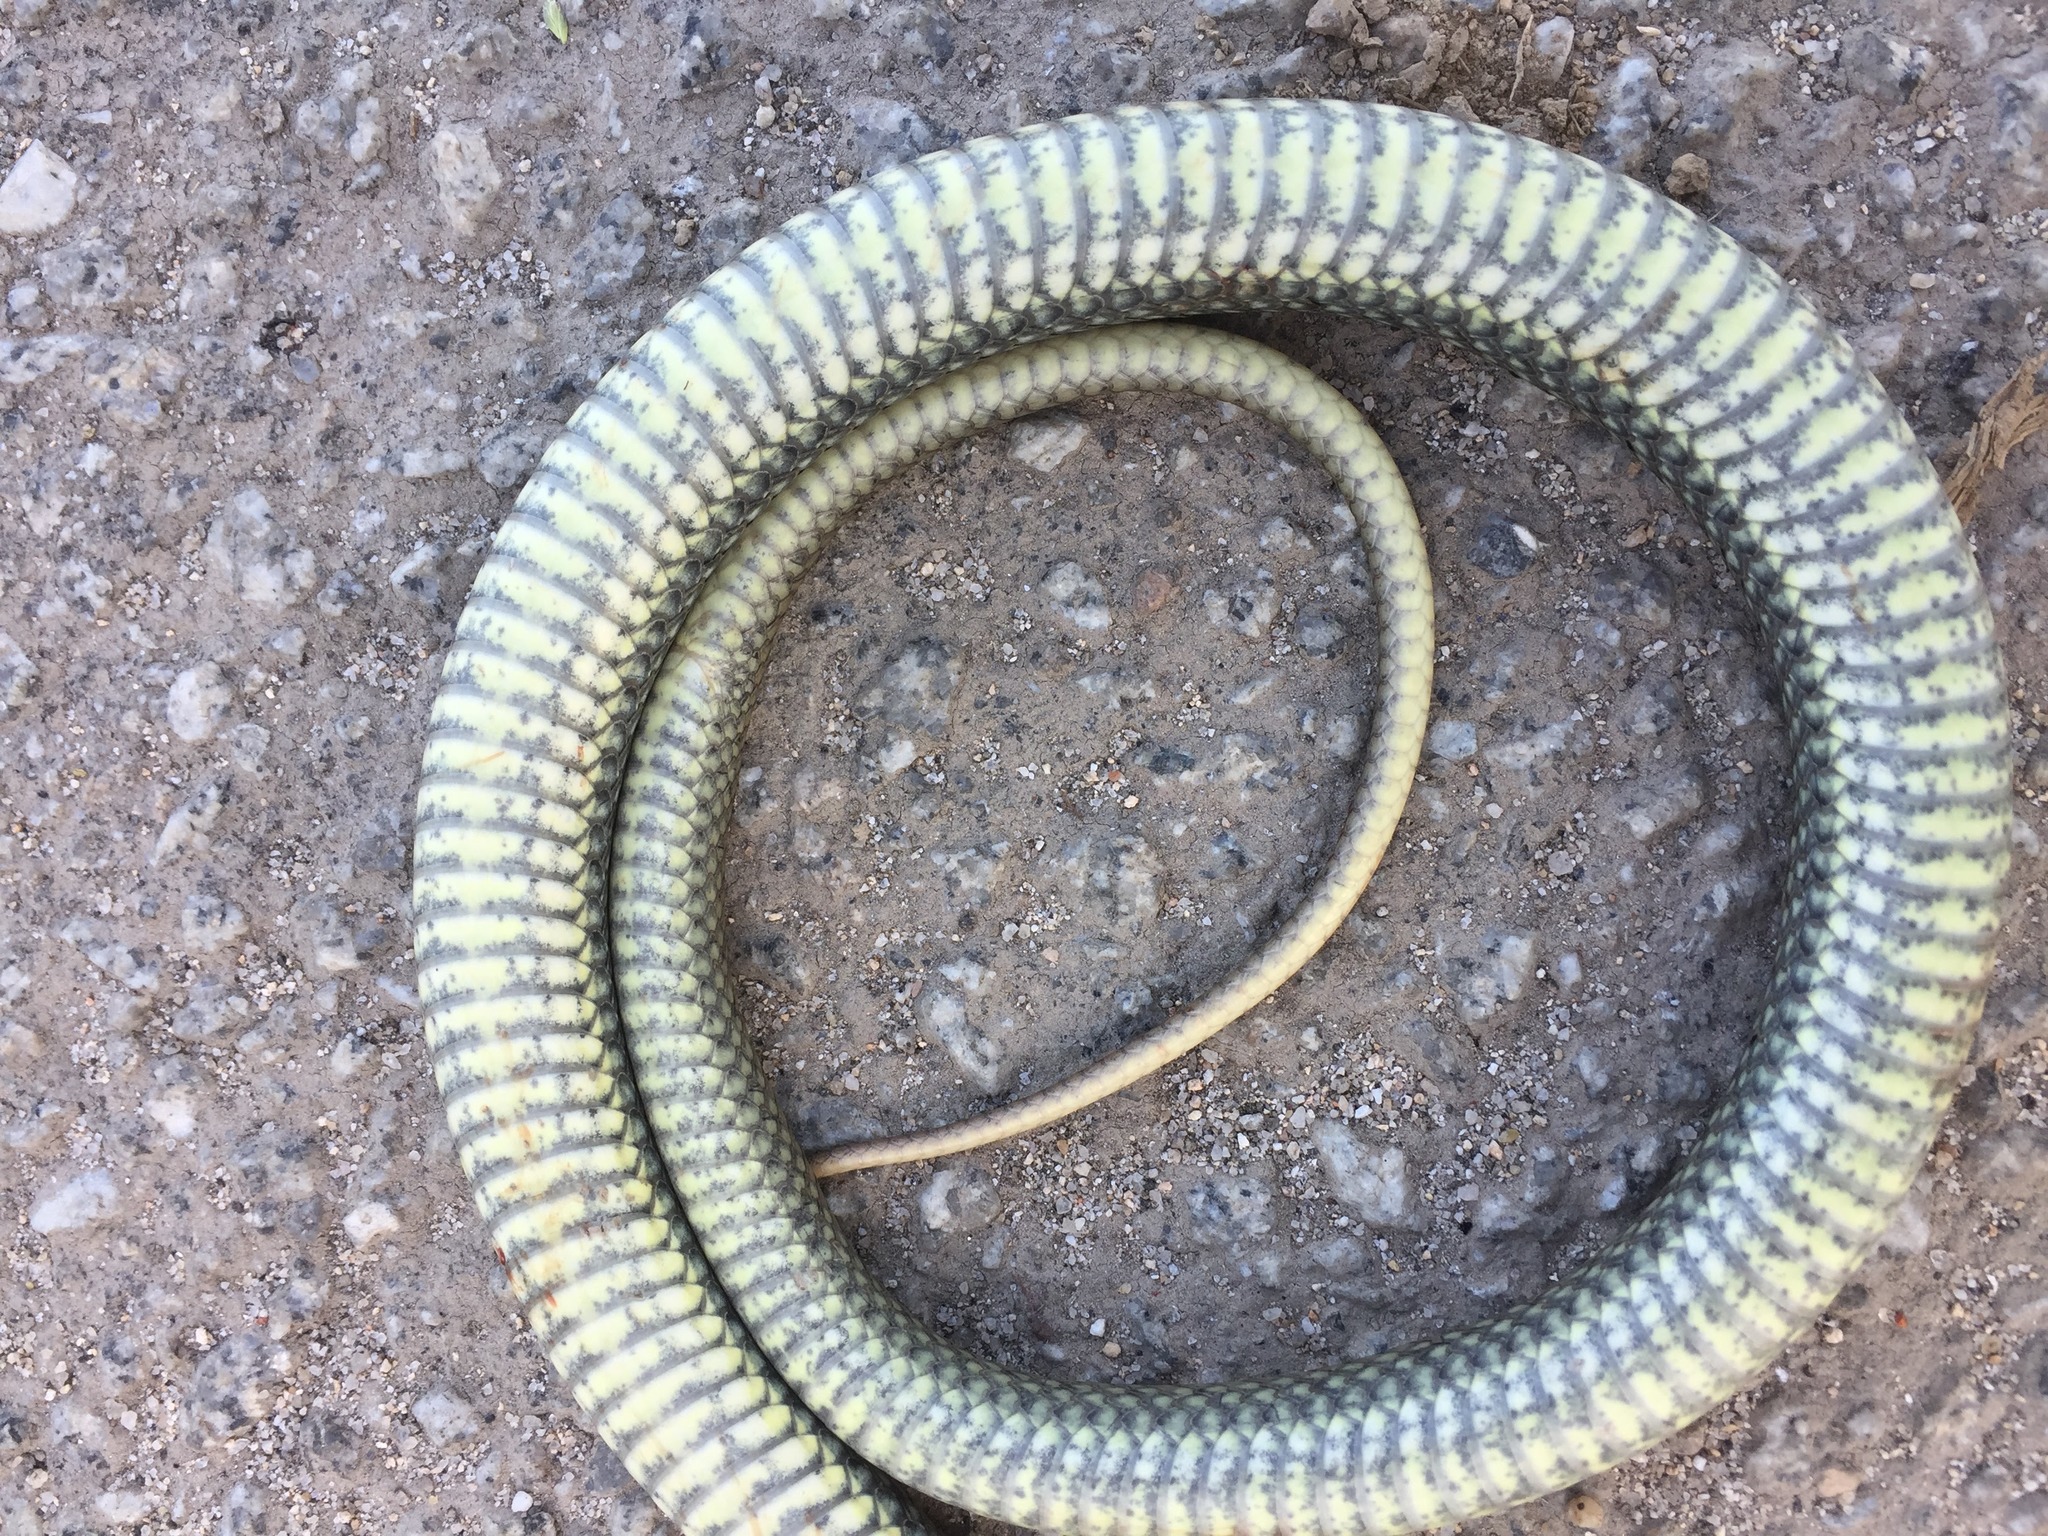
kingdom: Animalia
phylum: Chordata
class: Squamata
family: Psammophiidae
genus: Malpolon
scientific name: Malpolon monspessulanus
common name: Montpellier snake
